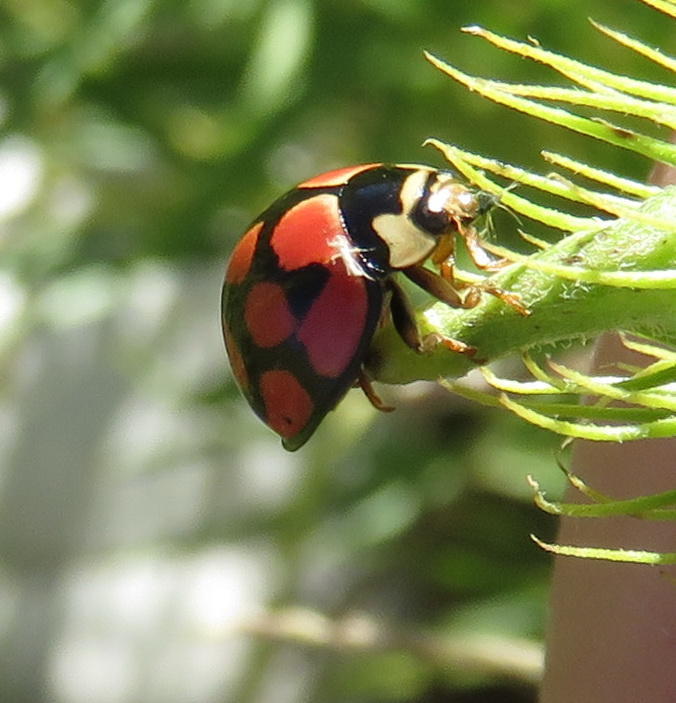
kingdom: Animalia
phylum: Arthropoda
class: Insecta
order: Coleoptera
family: Coccinellidae
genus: Cheilomenes
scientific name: Cheilomenes lunata
